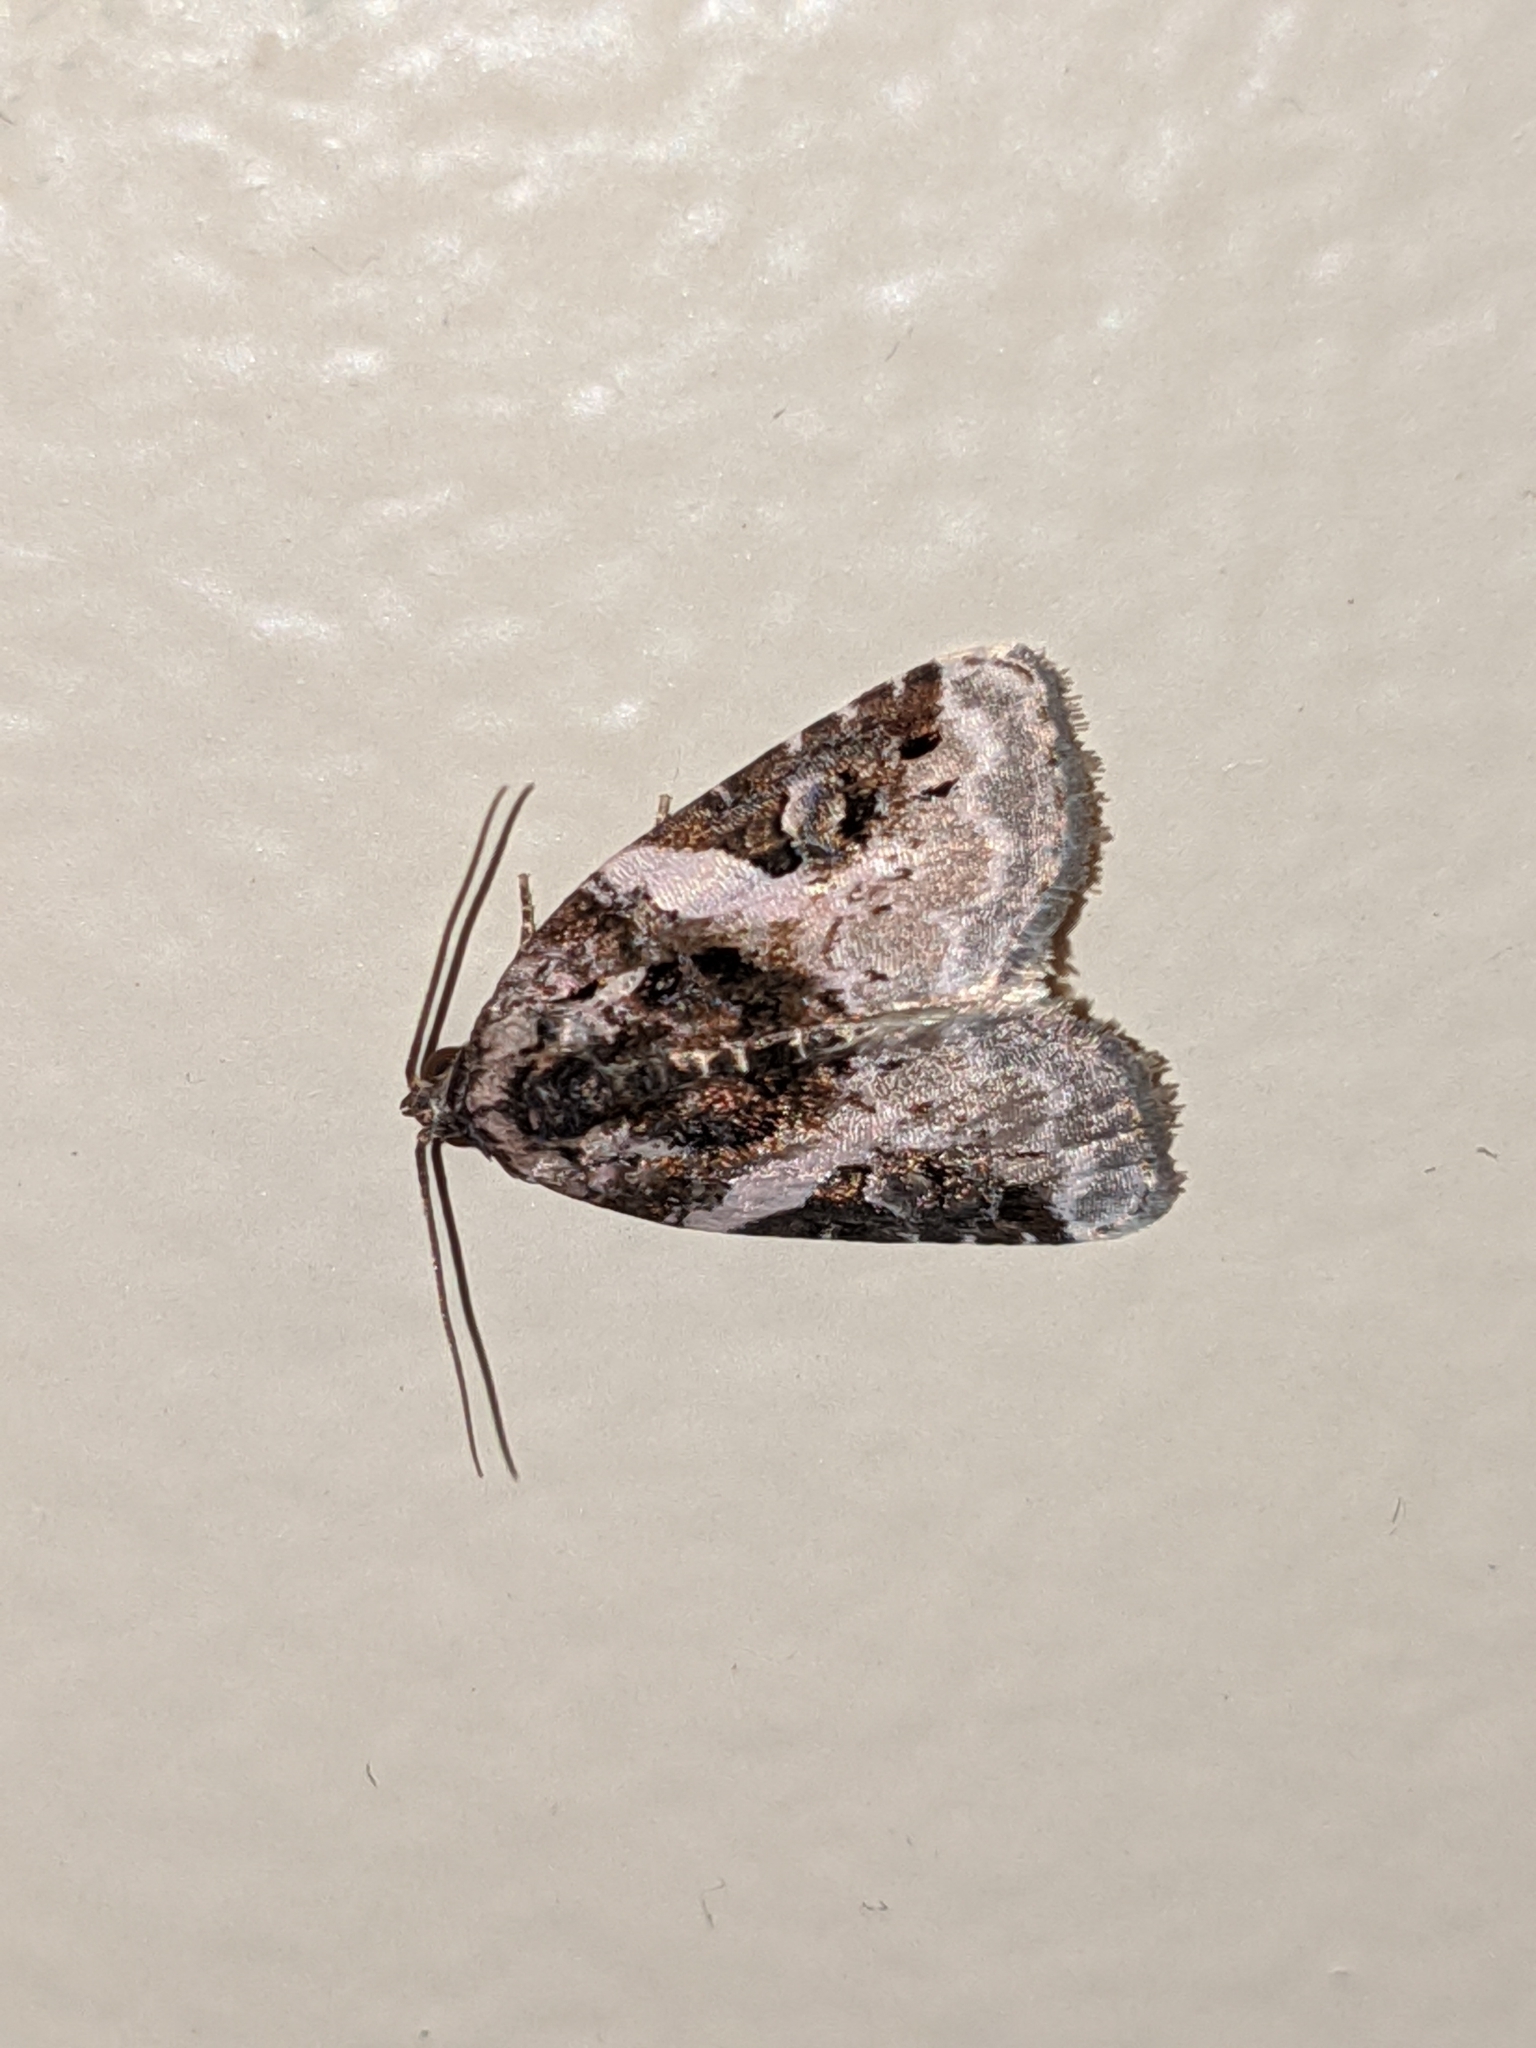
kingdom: Animalia
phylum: Arthropoda
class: Insecta
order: Lepidoptera
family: Noctuidae
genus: Pseudeustrotia
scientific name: Pseudeustrotia carneola
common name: Pink-barred lithacodia moth
